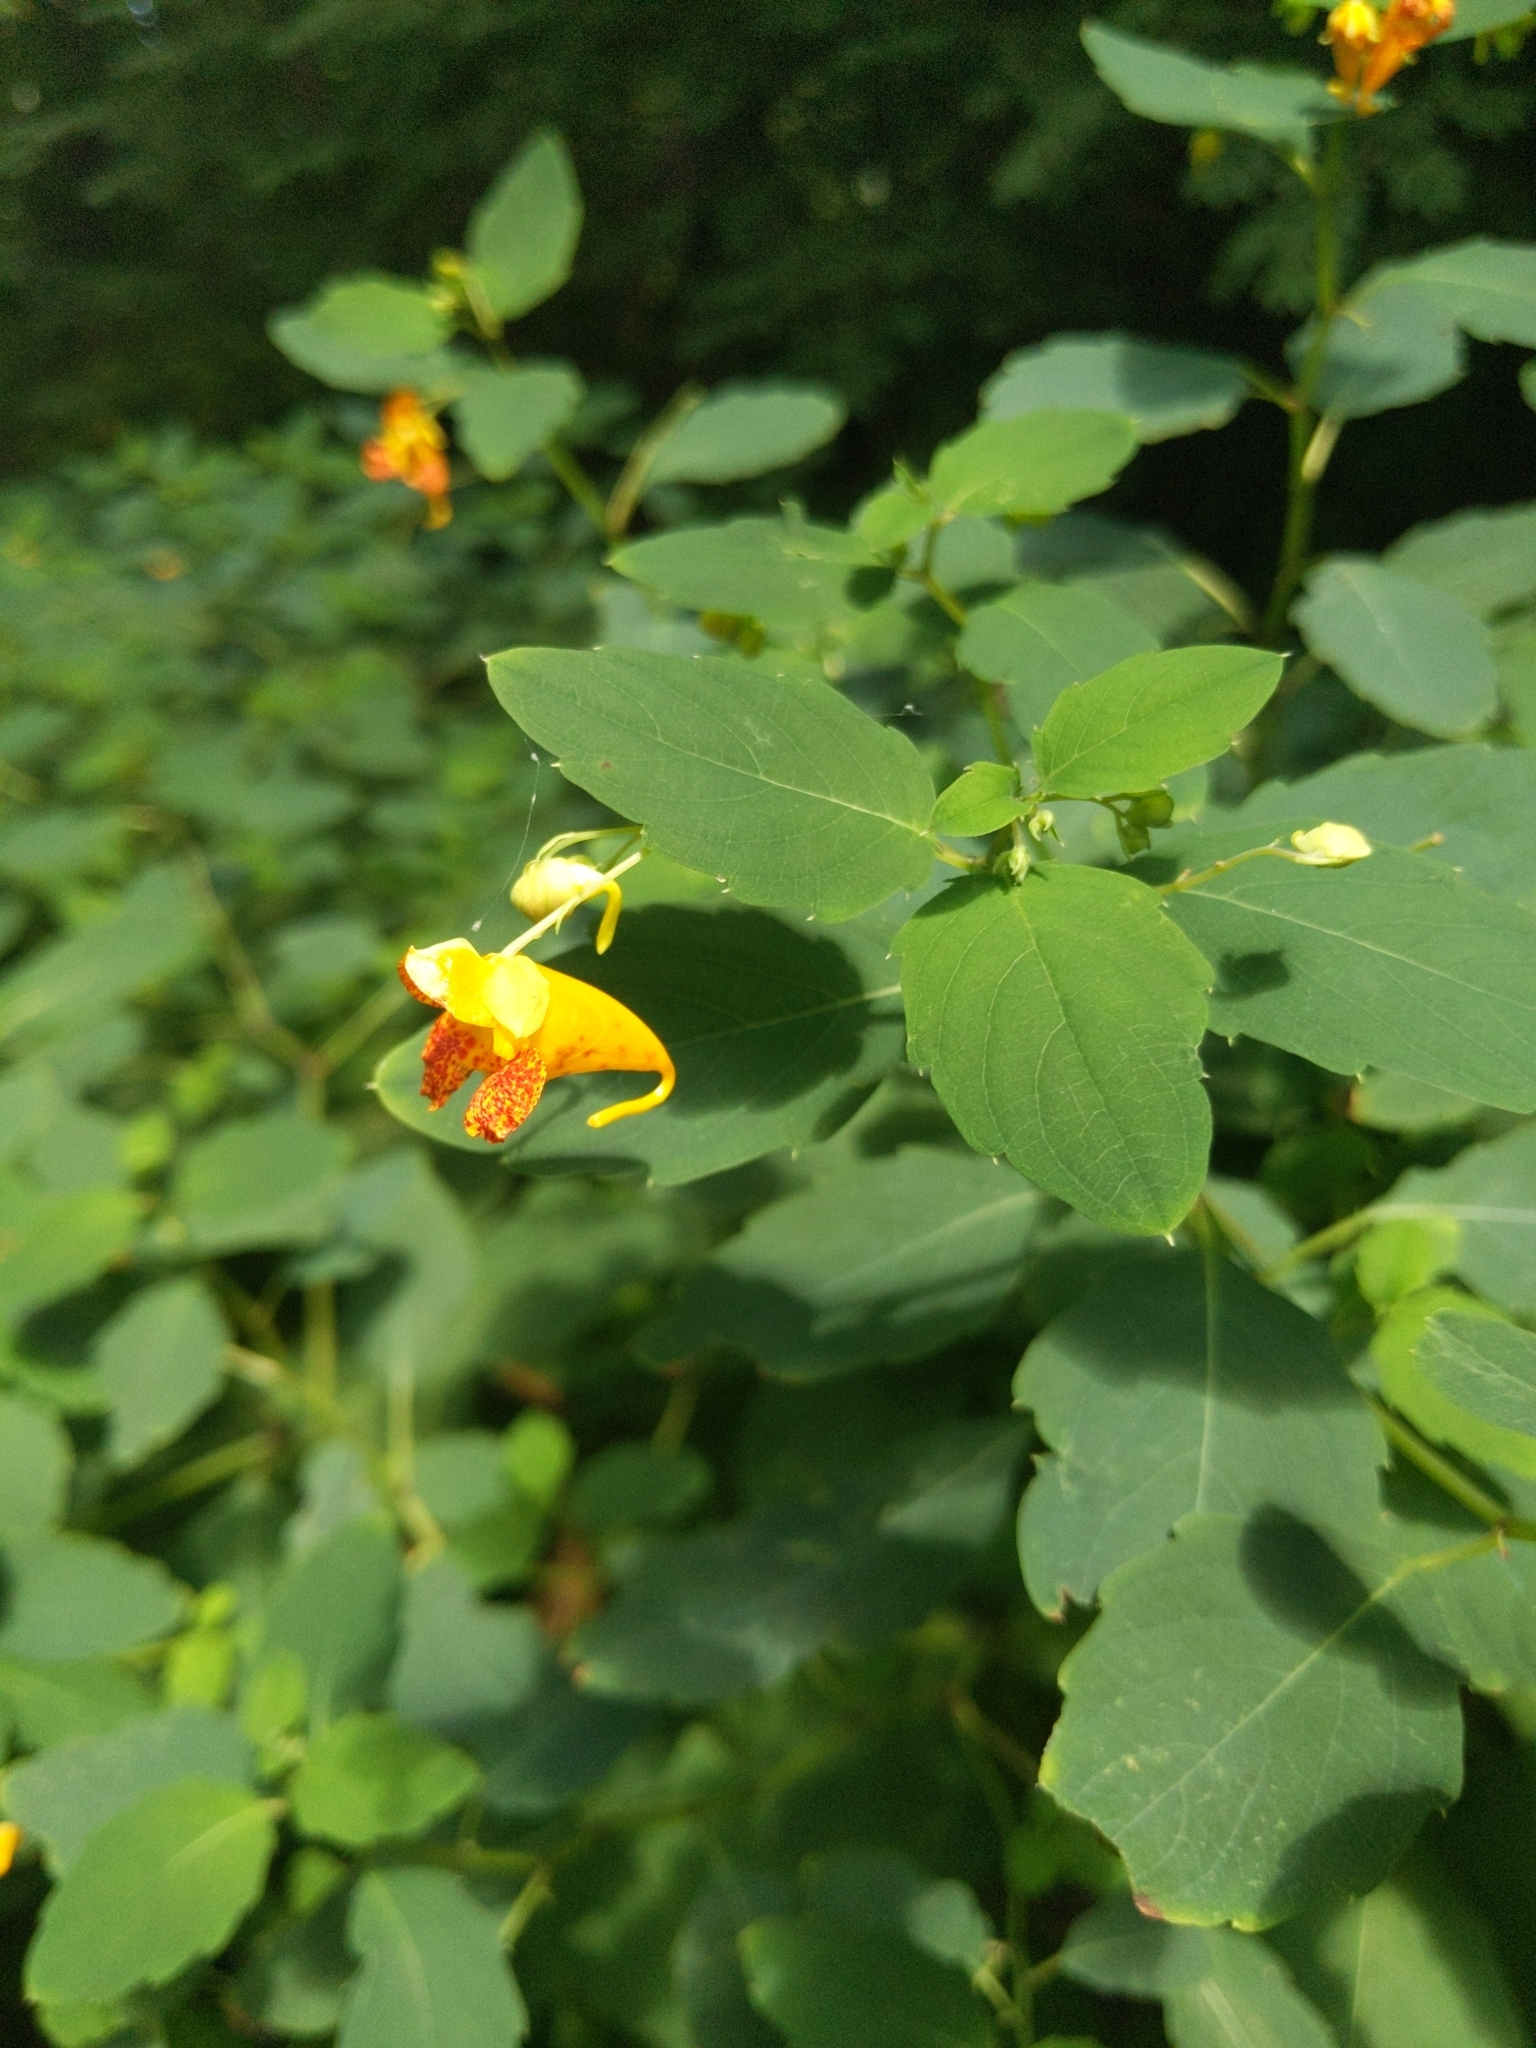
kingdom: Plantae
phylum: Tracheophyta
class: Magnoliopsida
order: Ericales
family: Balsaminaceae
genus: Impatiens
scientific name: Impatiens capensis
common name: Orange balsam
